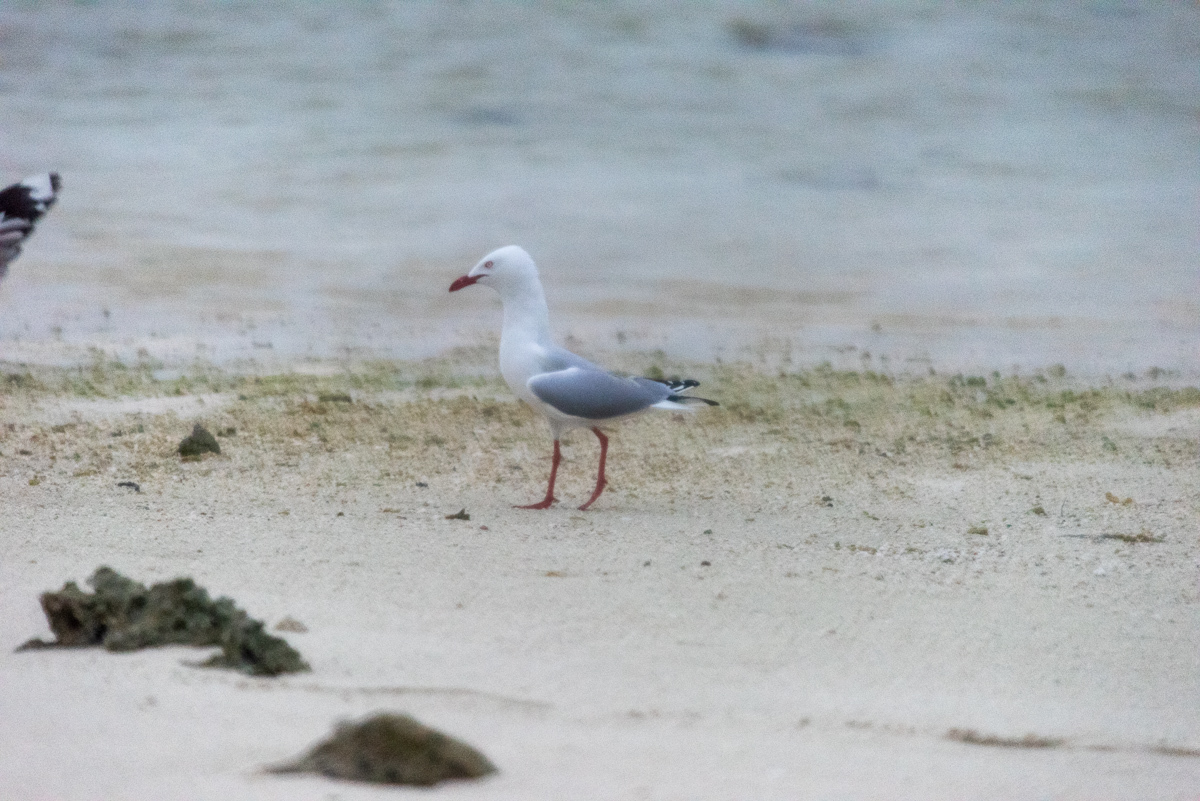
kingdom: Animalia
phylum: Chordata
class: Aves
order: Charadriiformes
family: Laridae
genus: Chroicocephalus
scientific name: Chroicocephalus novaehollandiae
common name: Silver gull
